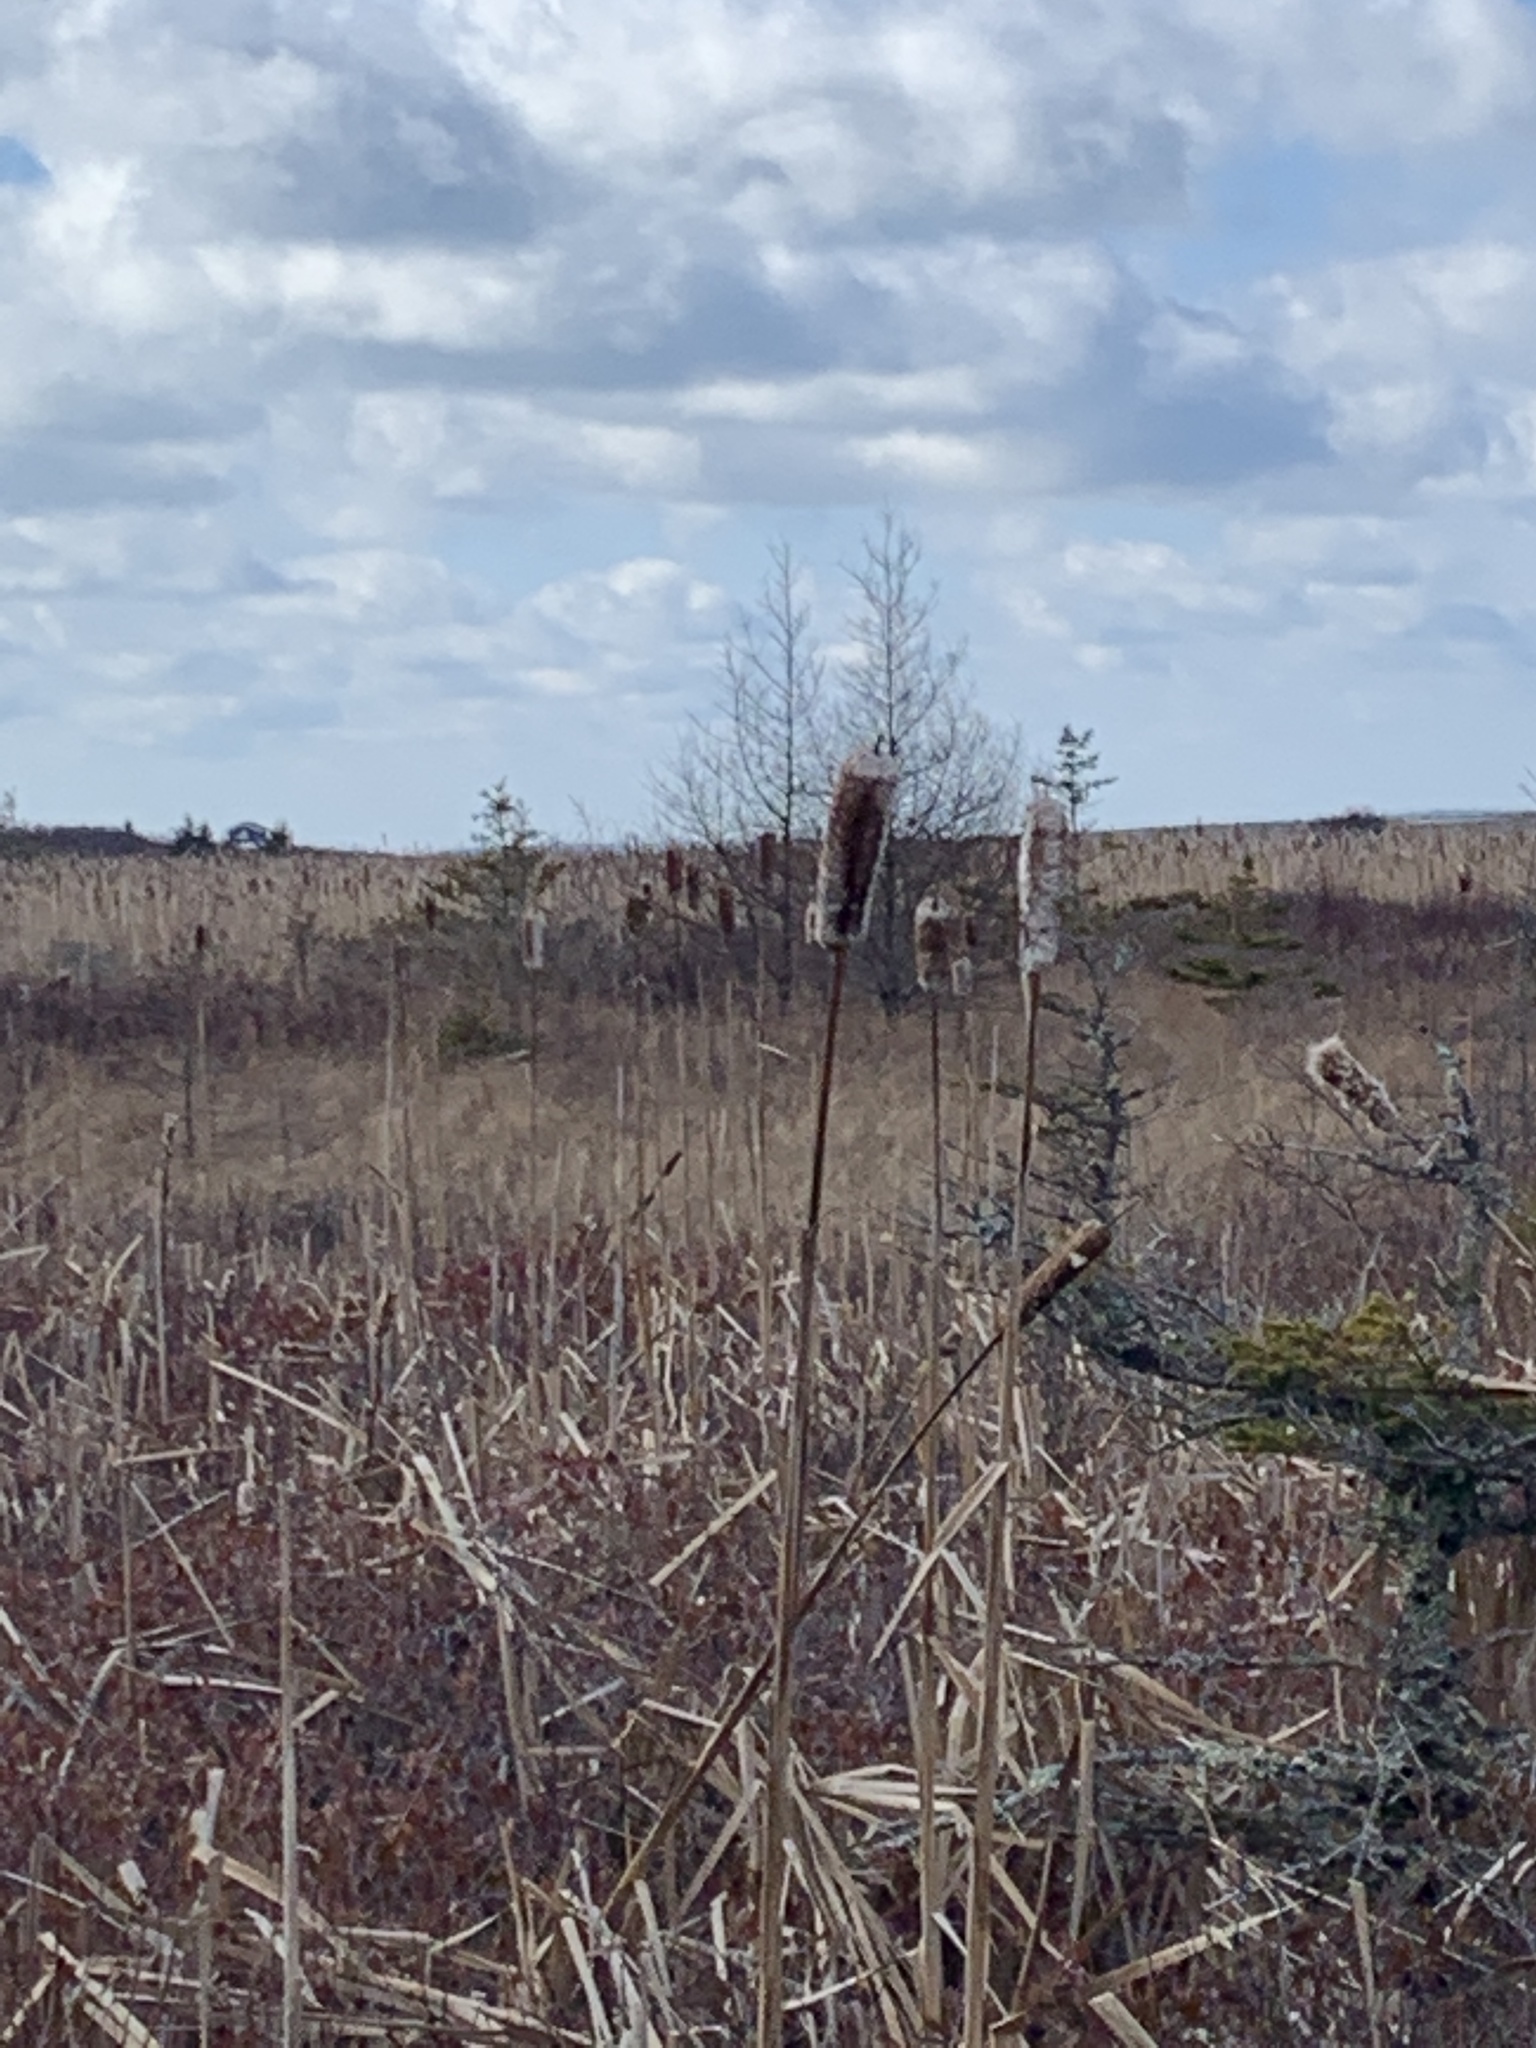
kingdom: Plantae
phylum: Tracheophyta
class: Liliopsida
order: Poales
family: Typhaceae
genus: Typha
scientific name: Typha latifolia
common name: Broadleaf cattail
